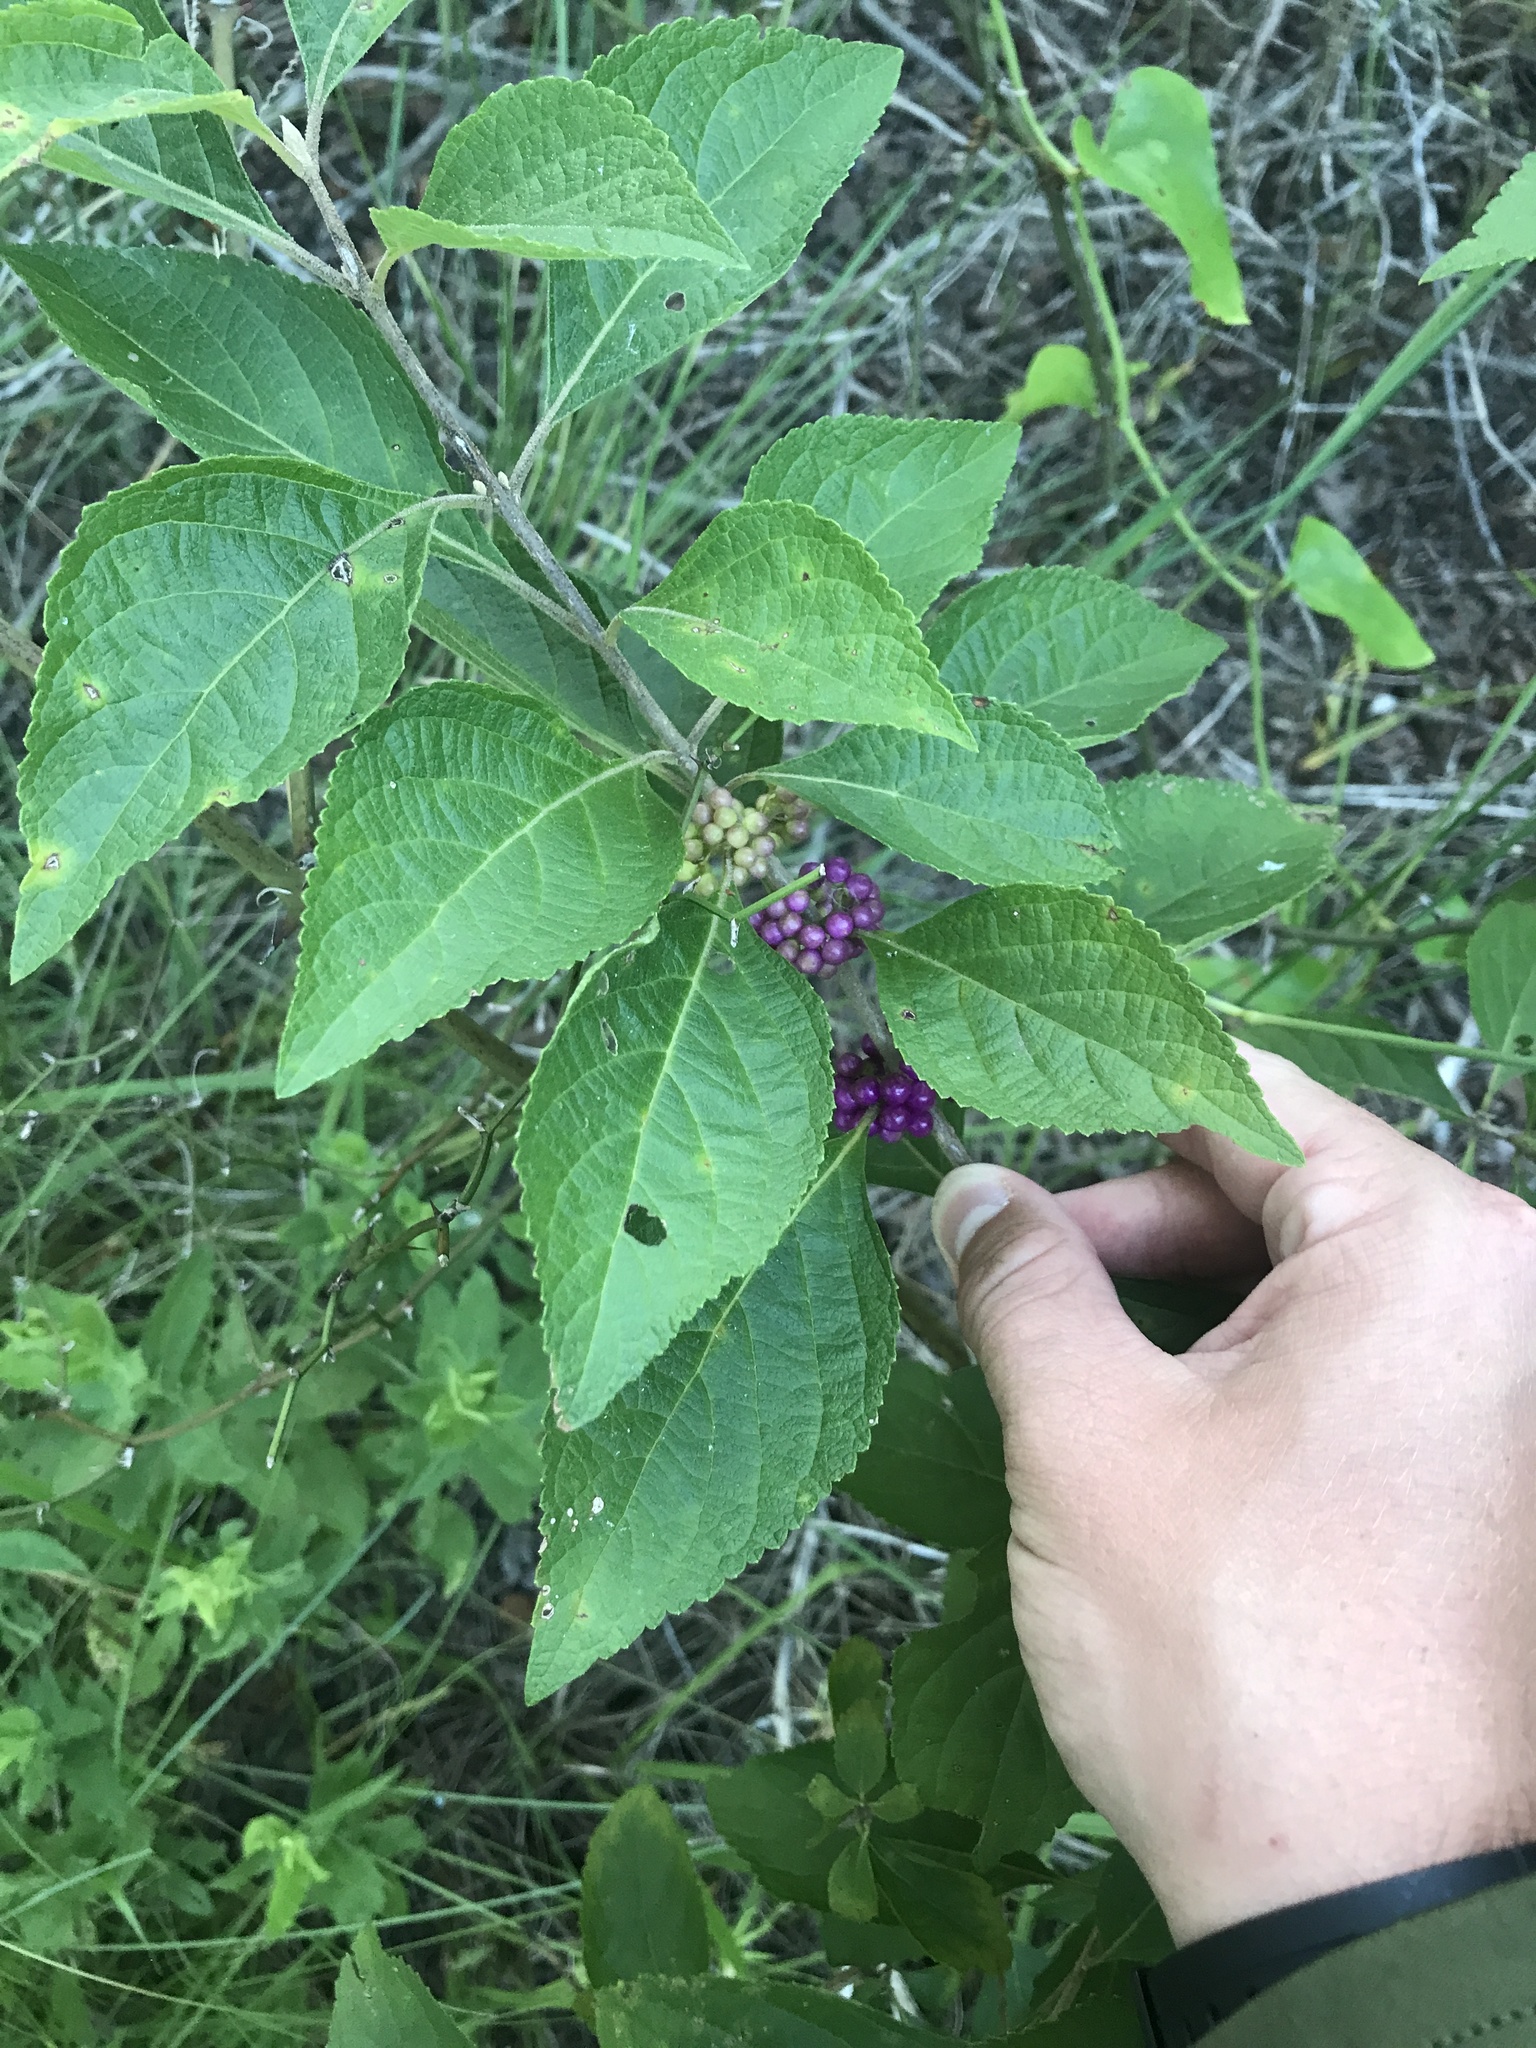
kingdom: Plantae
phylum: Tracheophyta
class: Magnoliopsida
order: Lamiales
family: Lamiaceae
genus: Callicarpa
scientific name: Callicarpa americana
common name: American beautyberry
